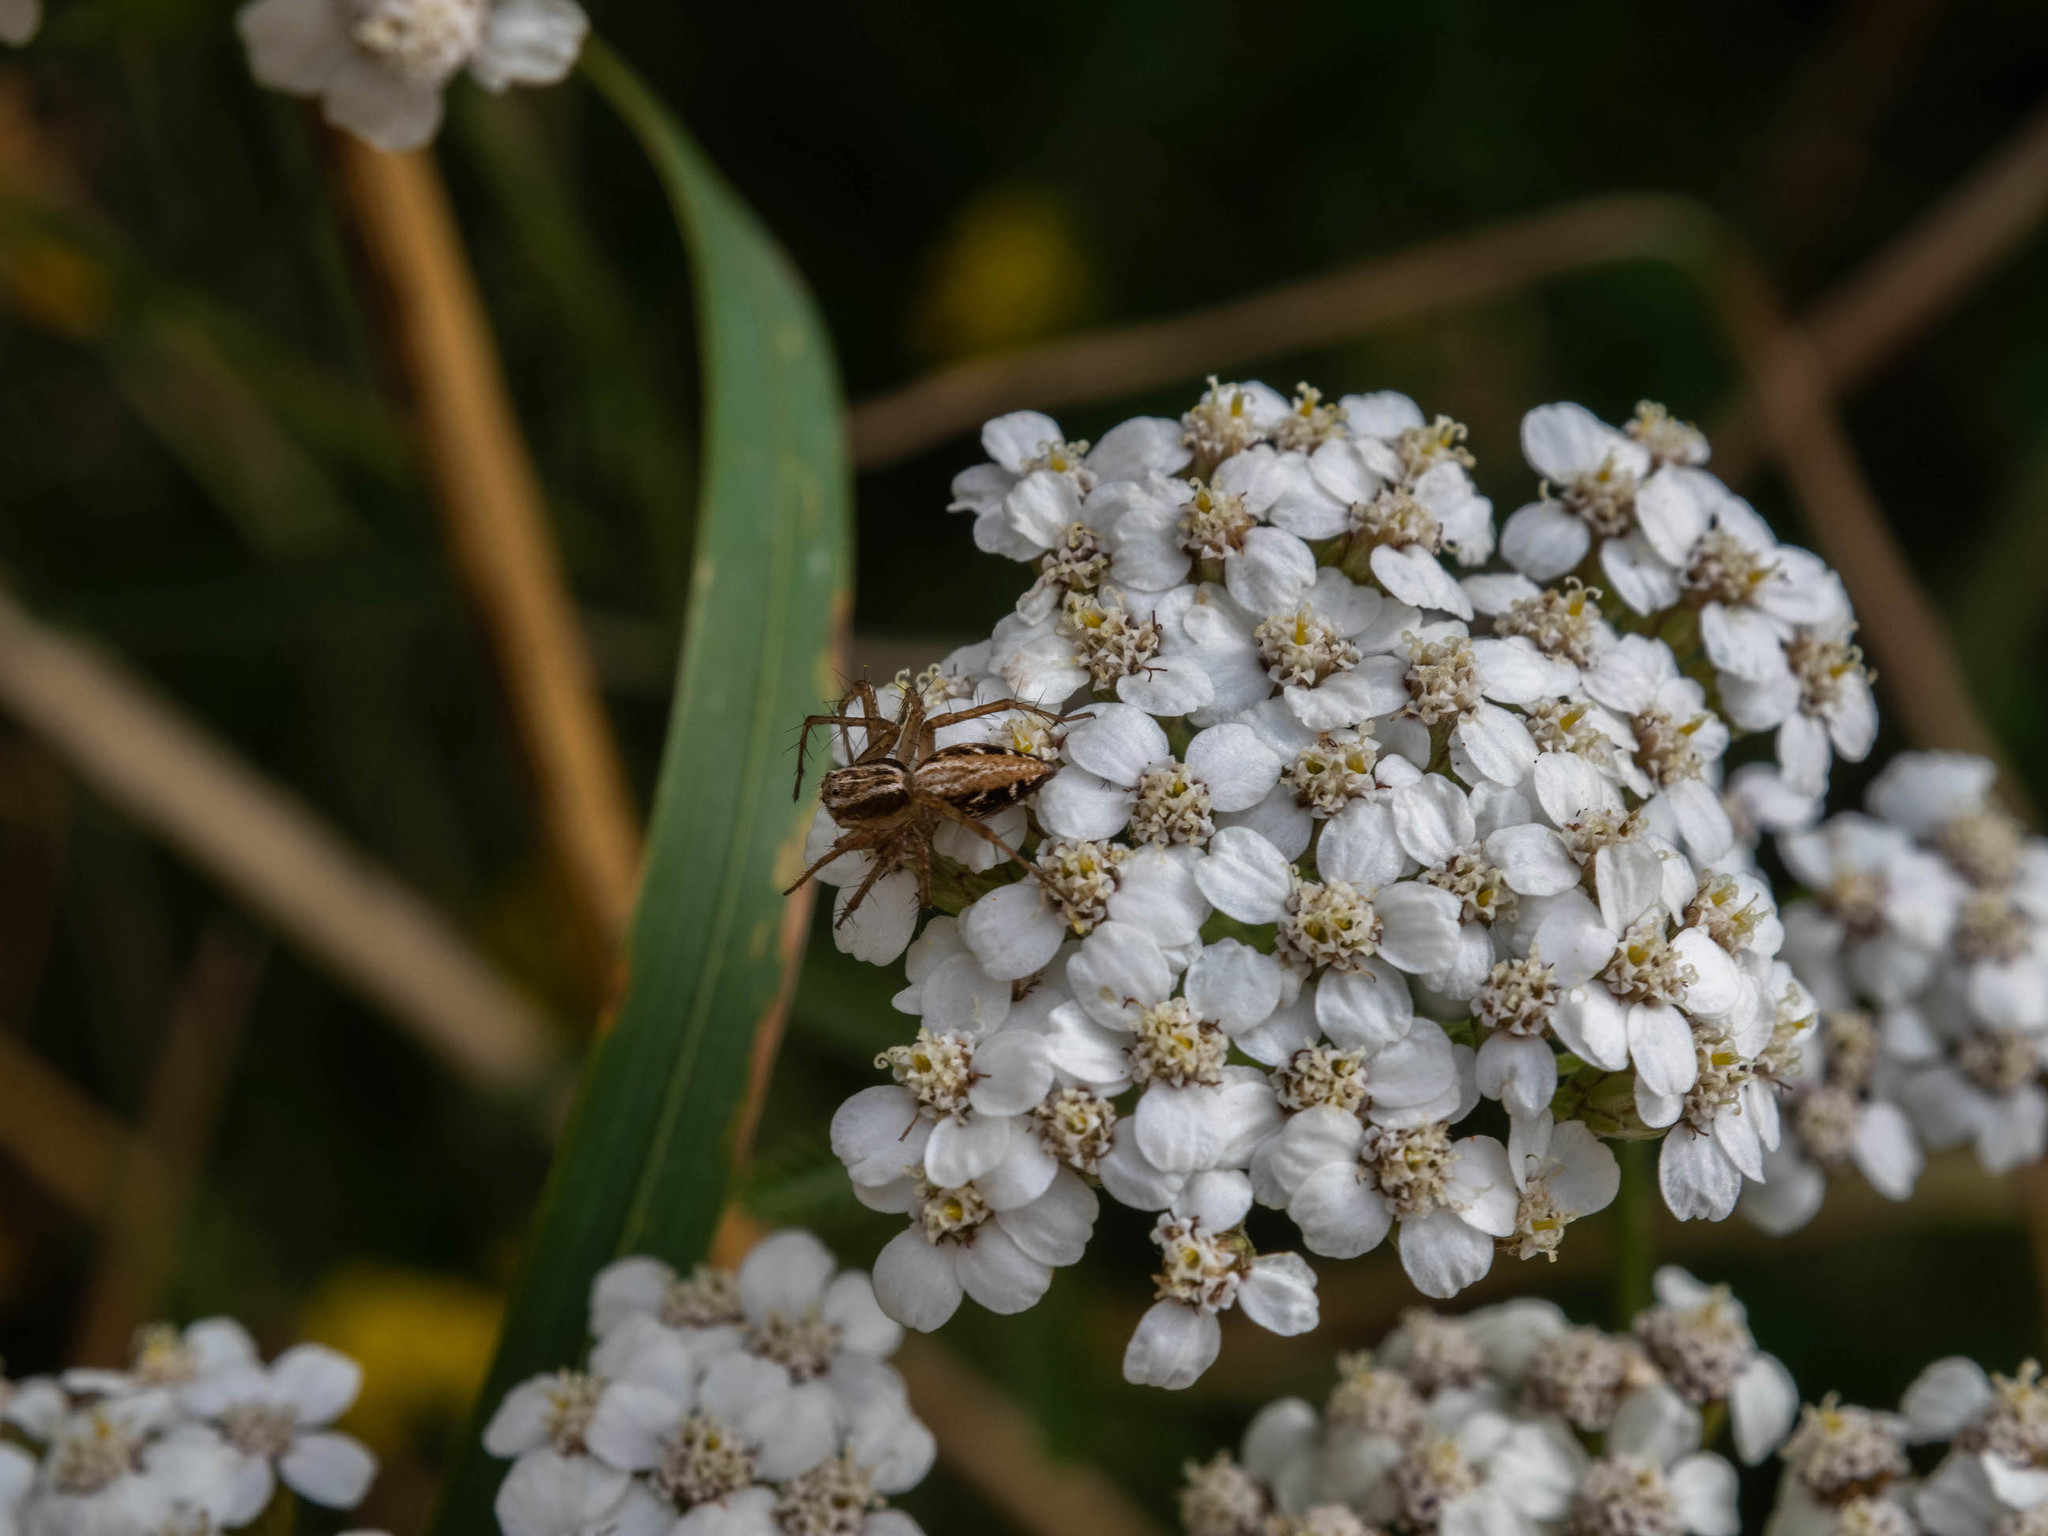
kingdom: Animalia
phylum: Arthropoda
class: Arachnida
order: Araneae
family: Oxyopidae
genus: Oxyopes
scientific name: Oxyopes gracilipes
